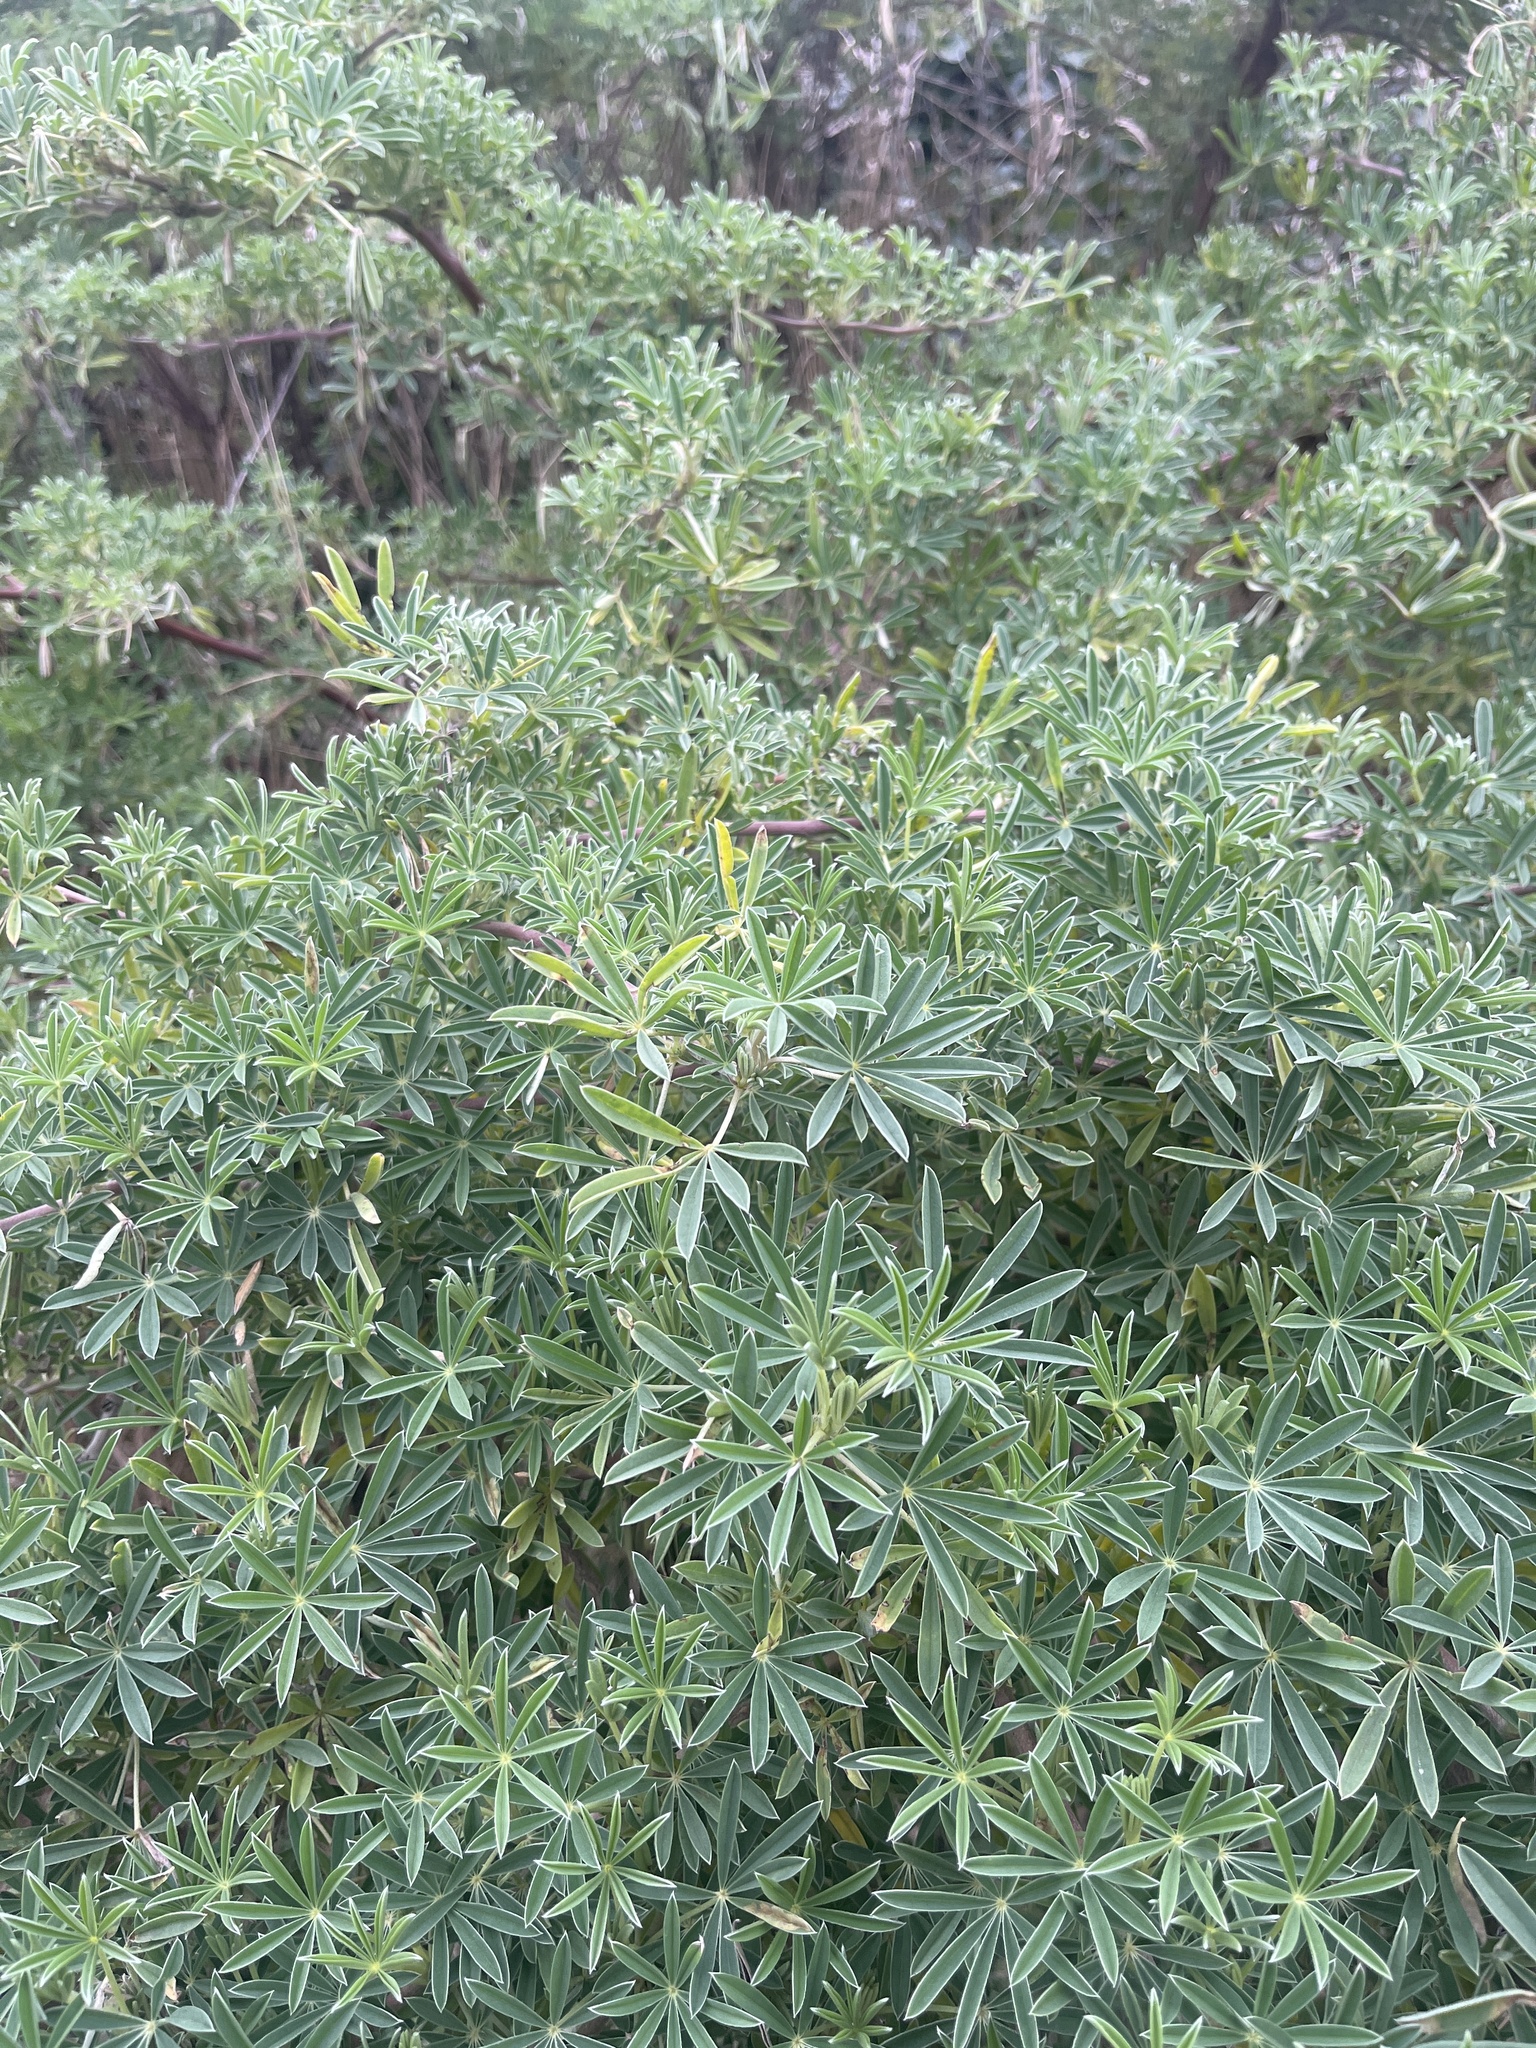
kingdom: Plantae
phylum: Tracheophyta
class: Magnoliopsida
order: Fabales
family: Fabaceae
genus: Lupinus
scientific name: Lupinus arboreus
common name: Yellow bush lupine
